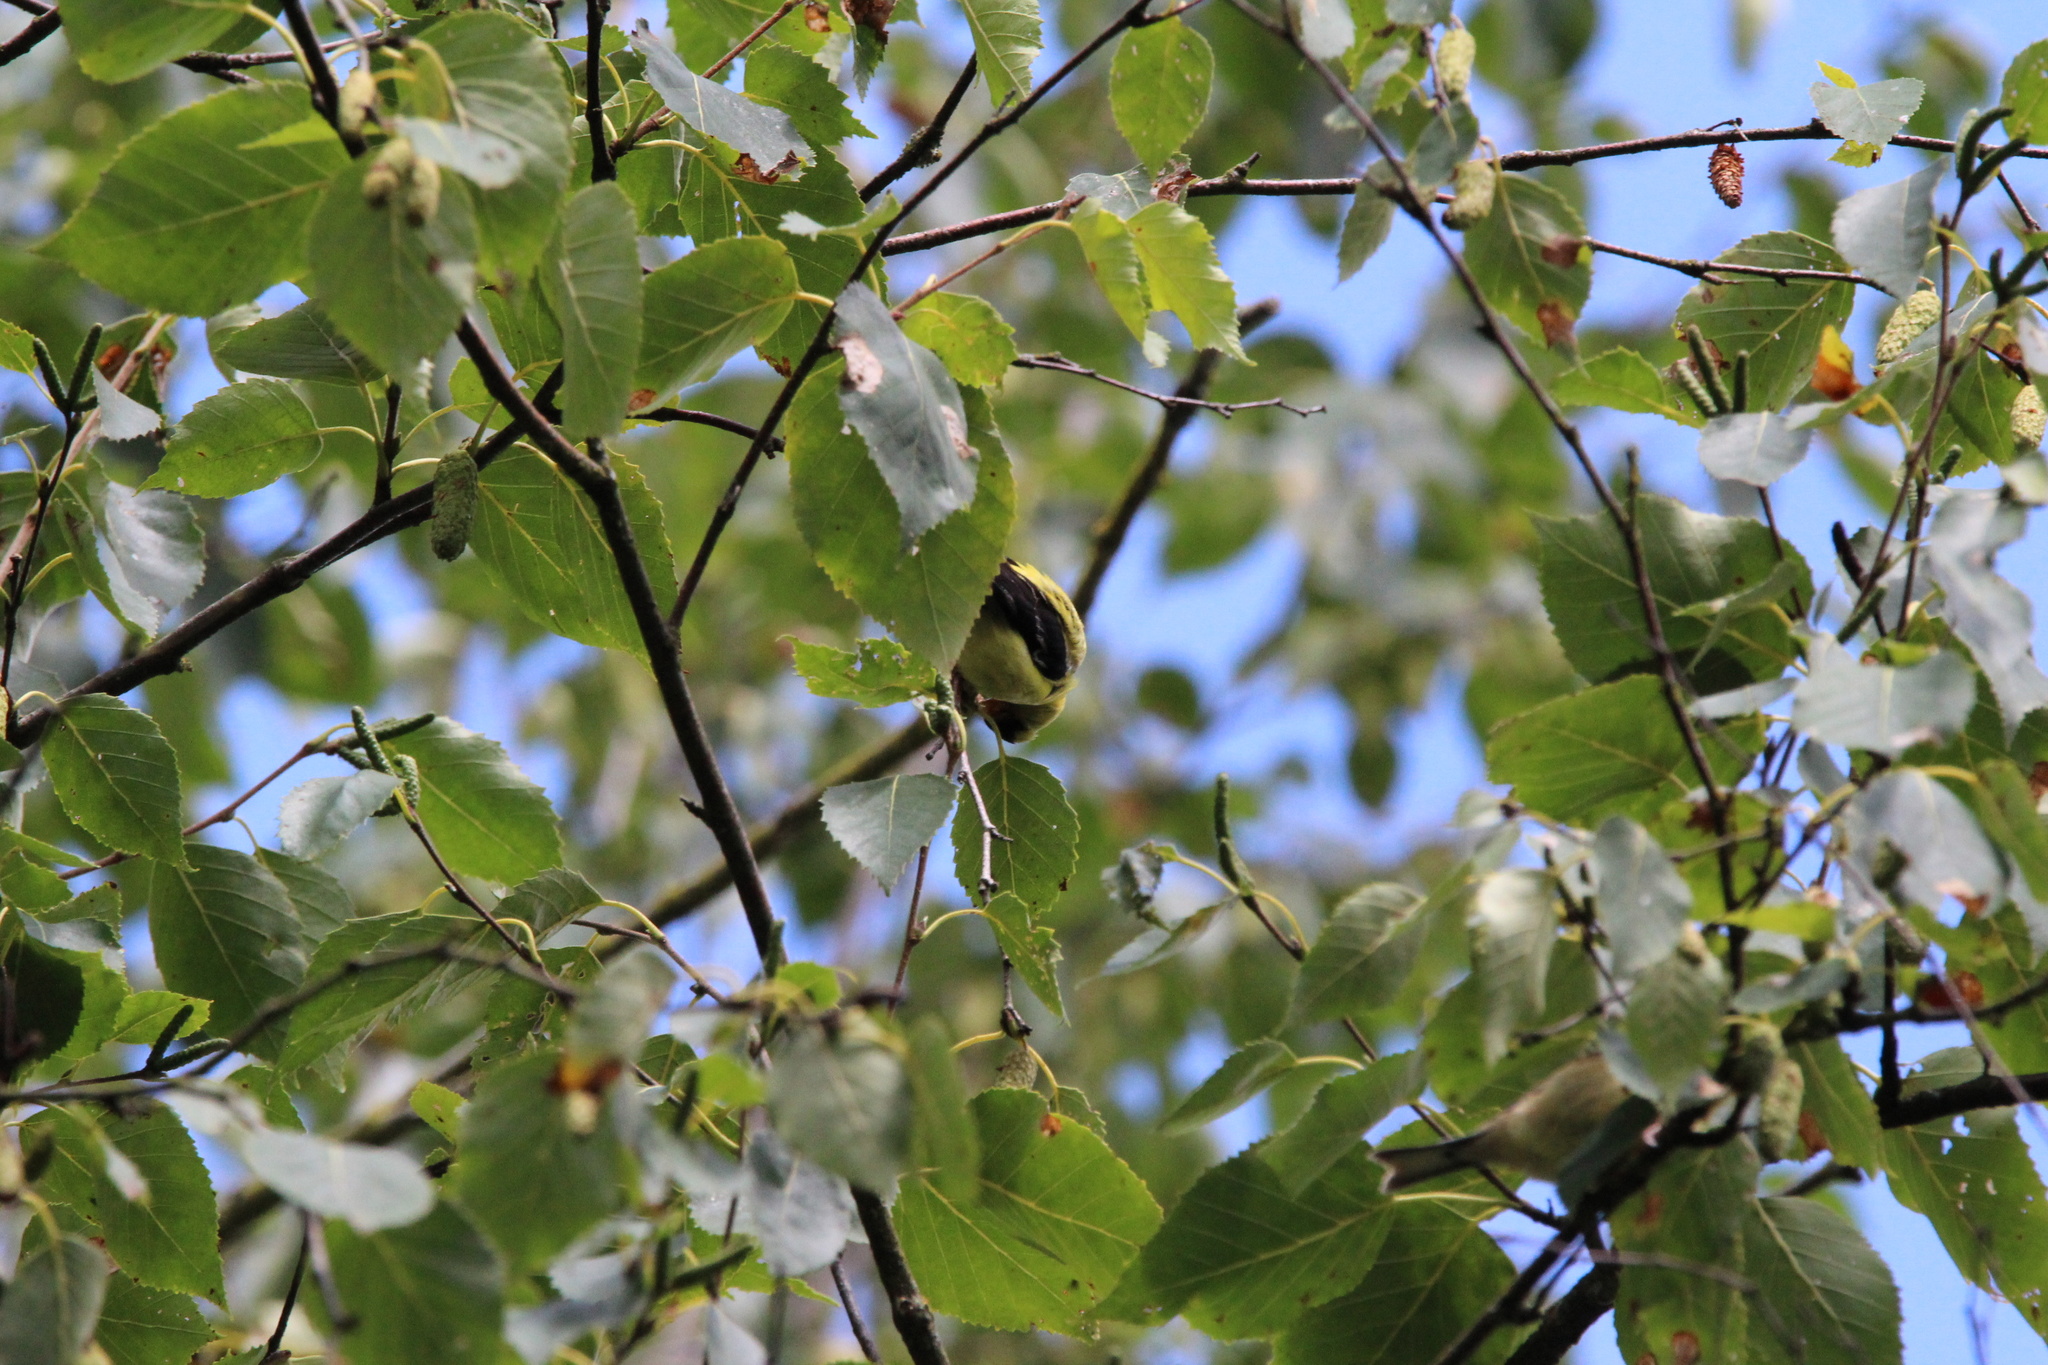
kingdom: Animalia
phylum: Chordata
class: Aves
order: Passeriformes
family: Fringillidae
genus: Spinus
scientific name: Spinus tristis
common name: American goldfinch
